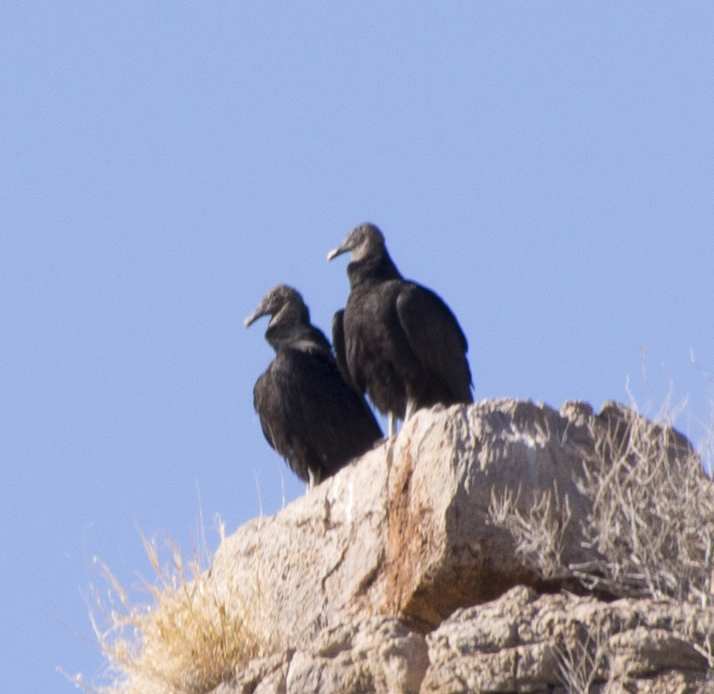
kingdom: Animalia
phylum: Chordata
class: Aves
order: Accipitriformes
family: Cathartidae
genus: Coragyps
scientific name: Coragyps atratus
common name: Black vulture
